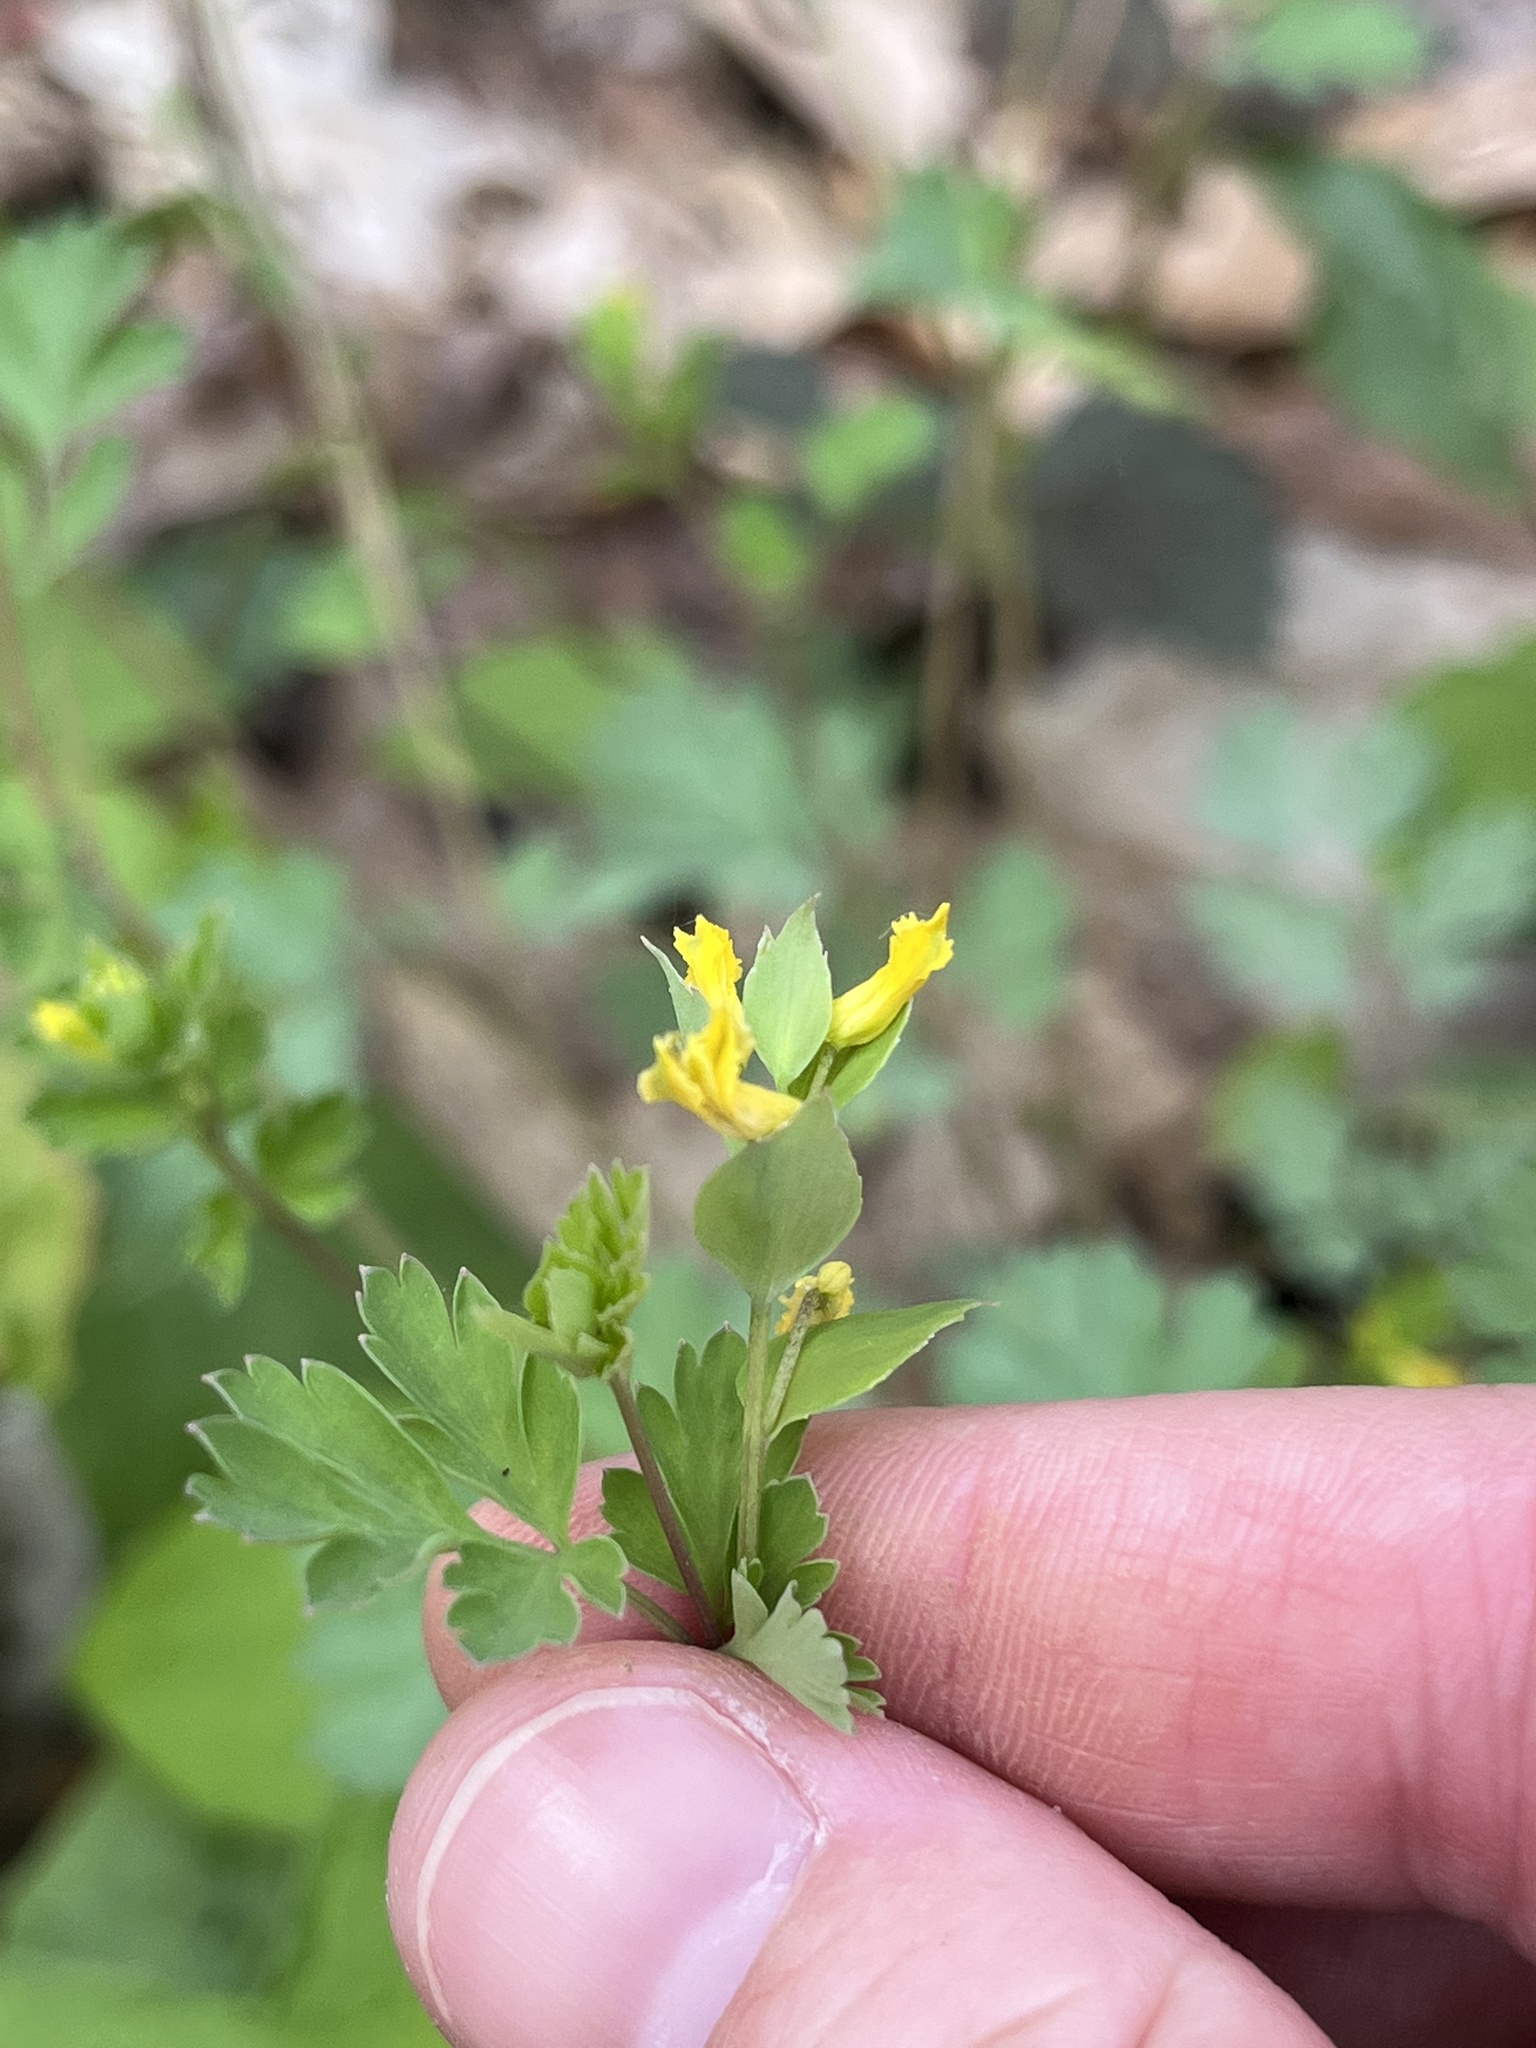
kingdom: Plantae
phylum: Tracheophyta
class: Magnoliopsida
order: Ranunculales
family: Papaveraceae
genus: Corydalis
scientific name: Corydalis flavula
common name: Yellow corydalis
